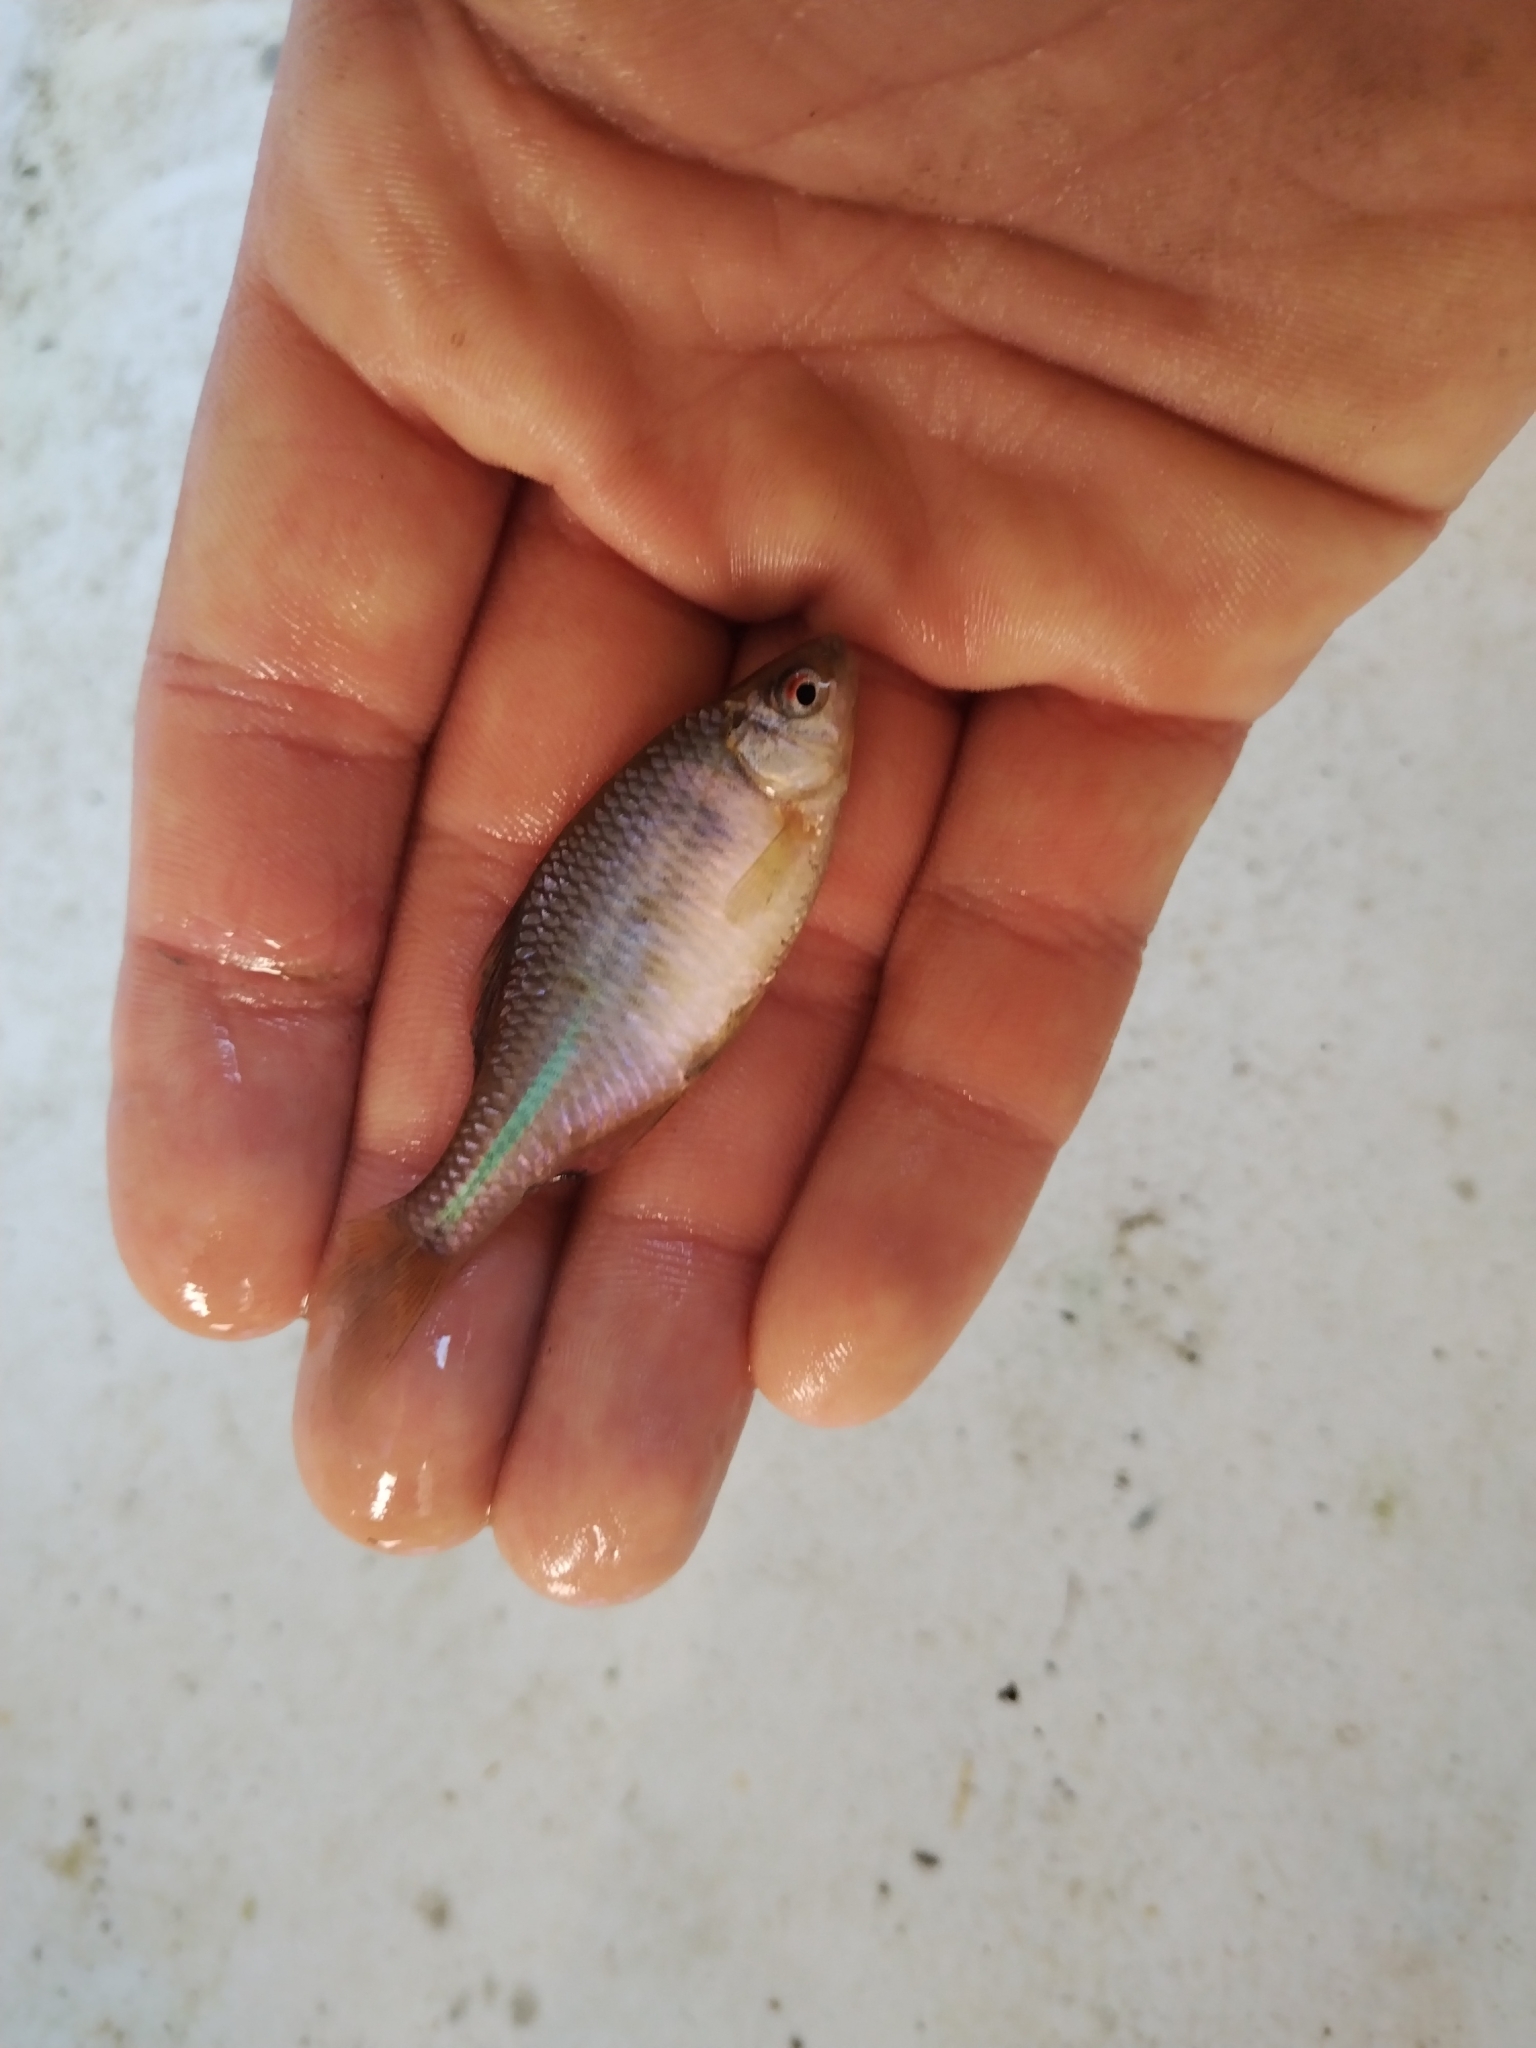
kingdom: Animalia
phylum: Chordata
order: Cypriniformes
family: Cyprinidae
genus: Rhodeus
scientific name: Rhodeus amarus
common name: Bitterling
